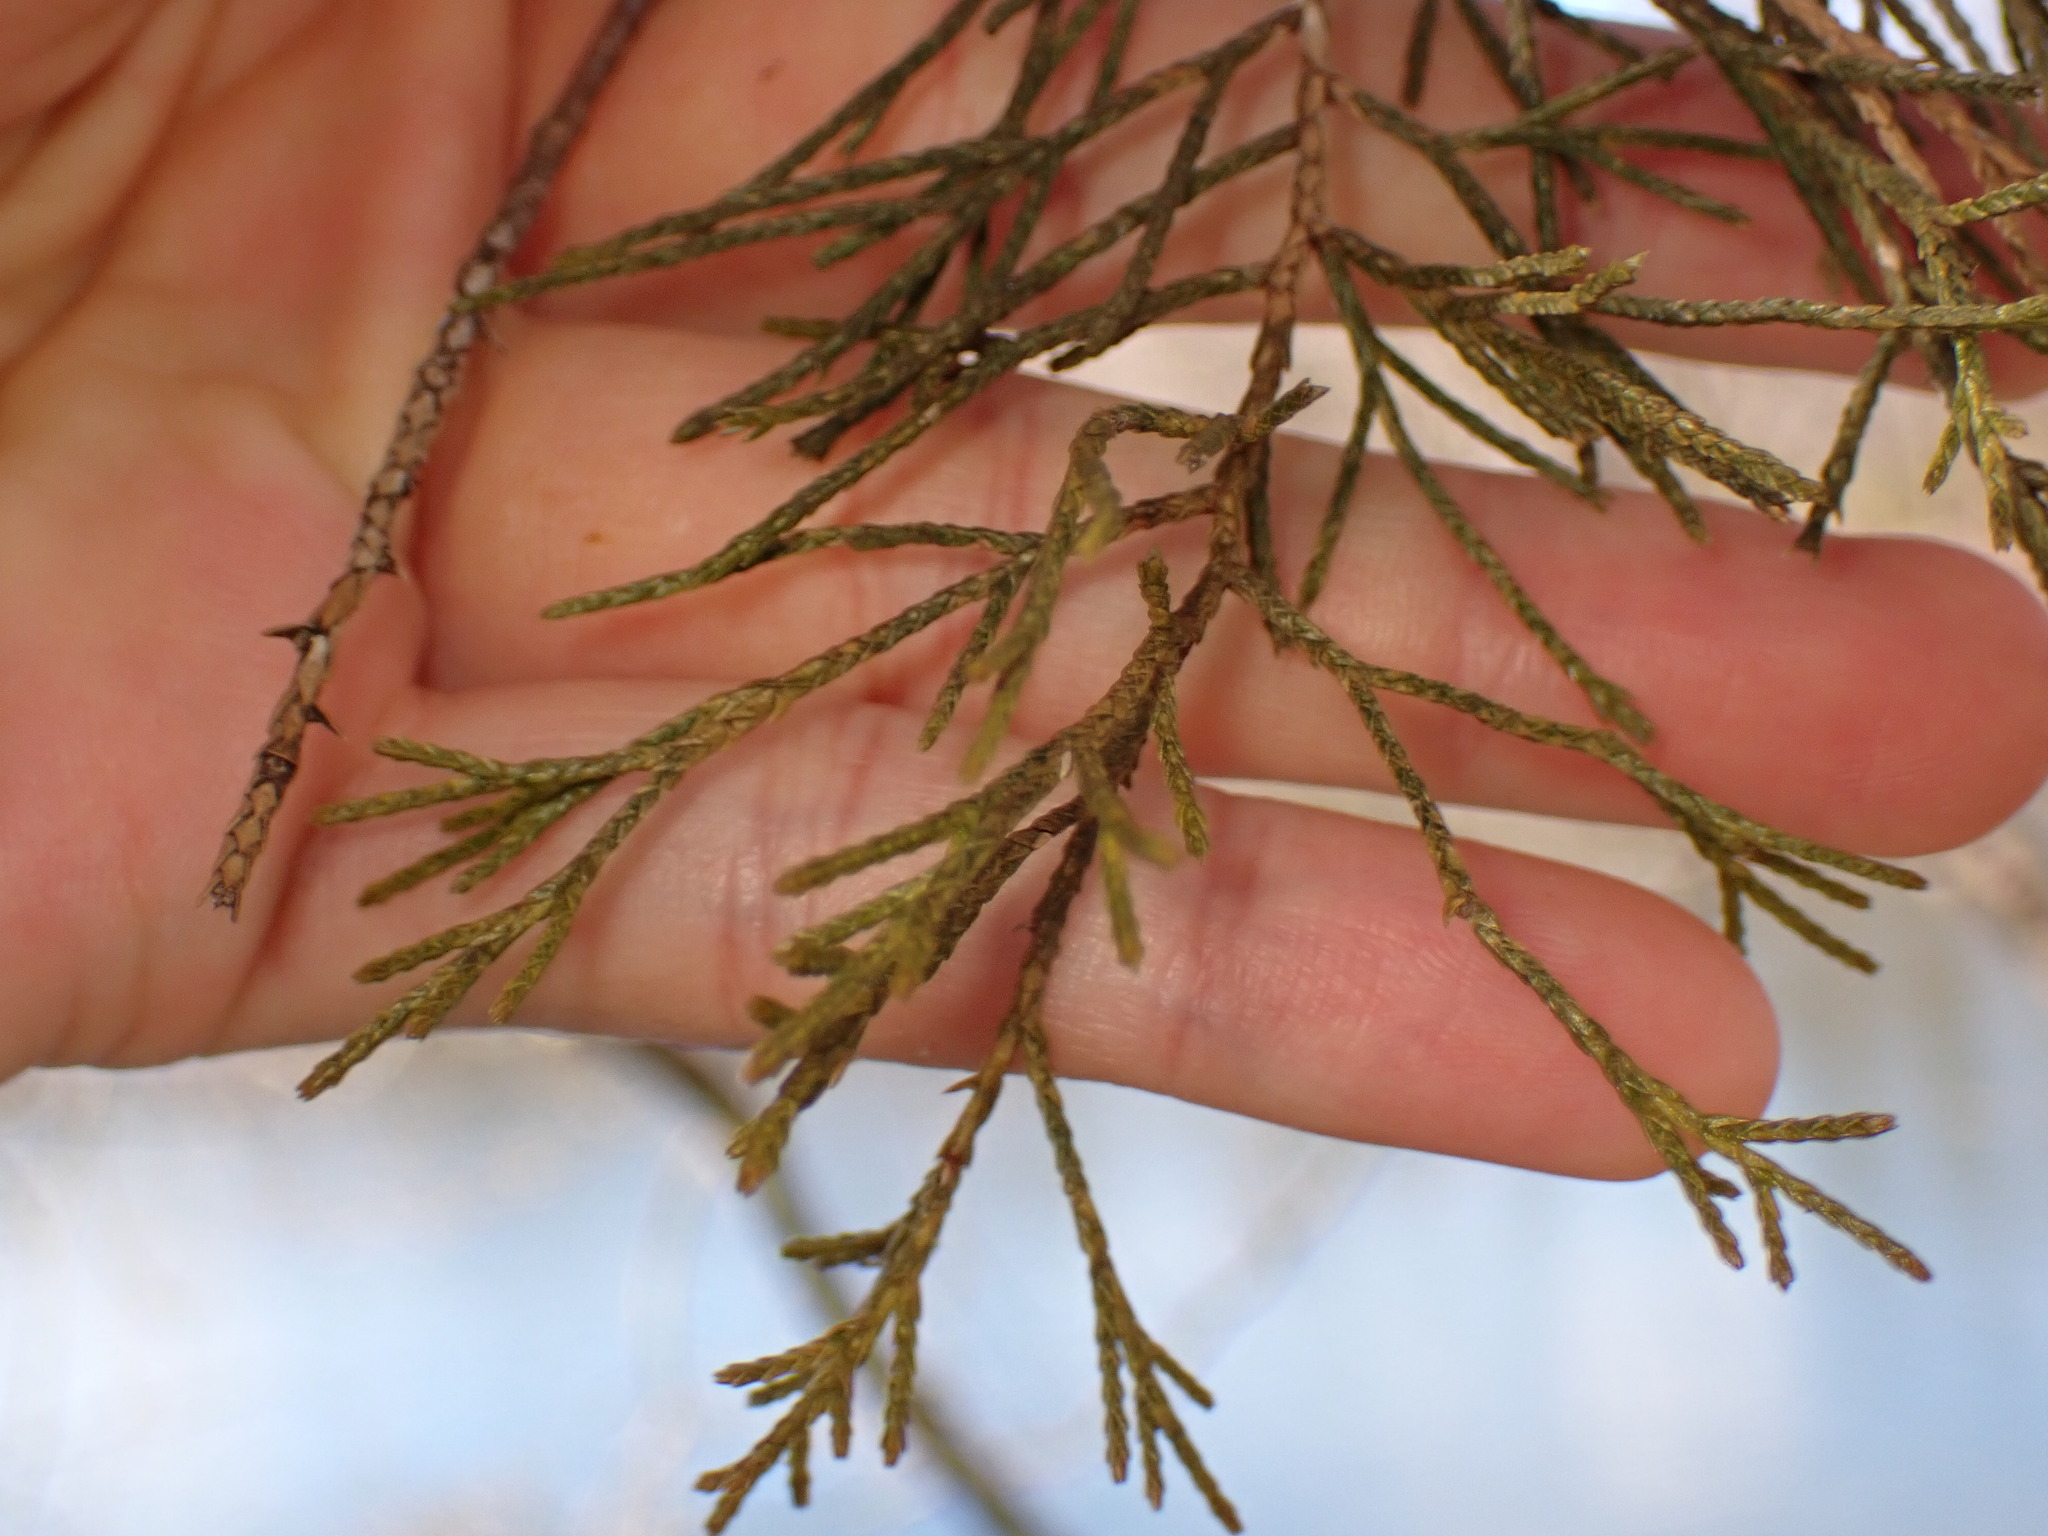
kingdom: Fungi
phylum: Basidiomycota
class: Agaricomycetes
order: Agaricales
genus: Dendrothele
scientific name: Dendrothele nivosa
